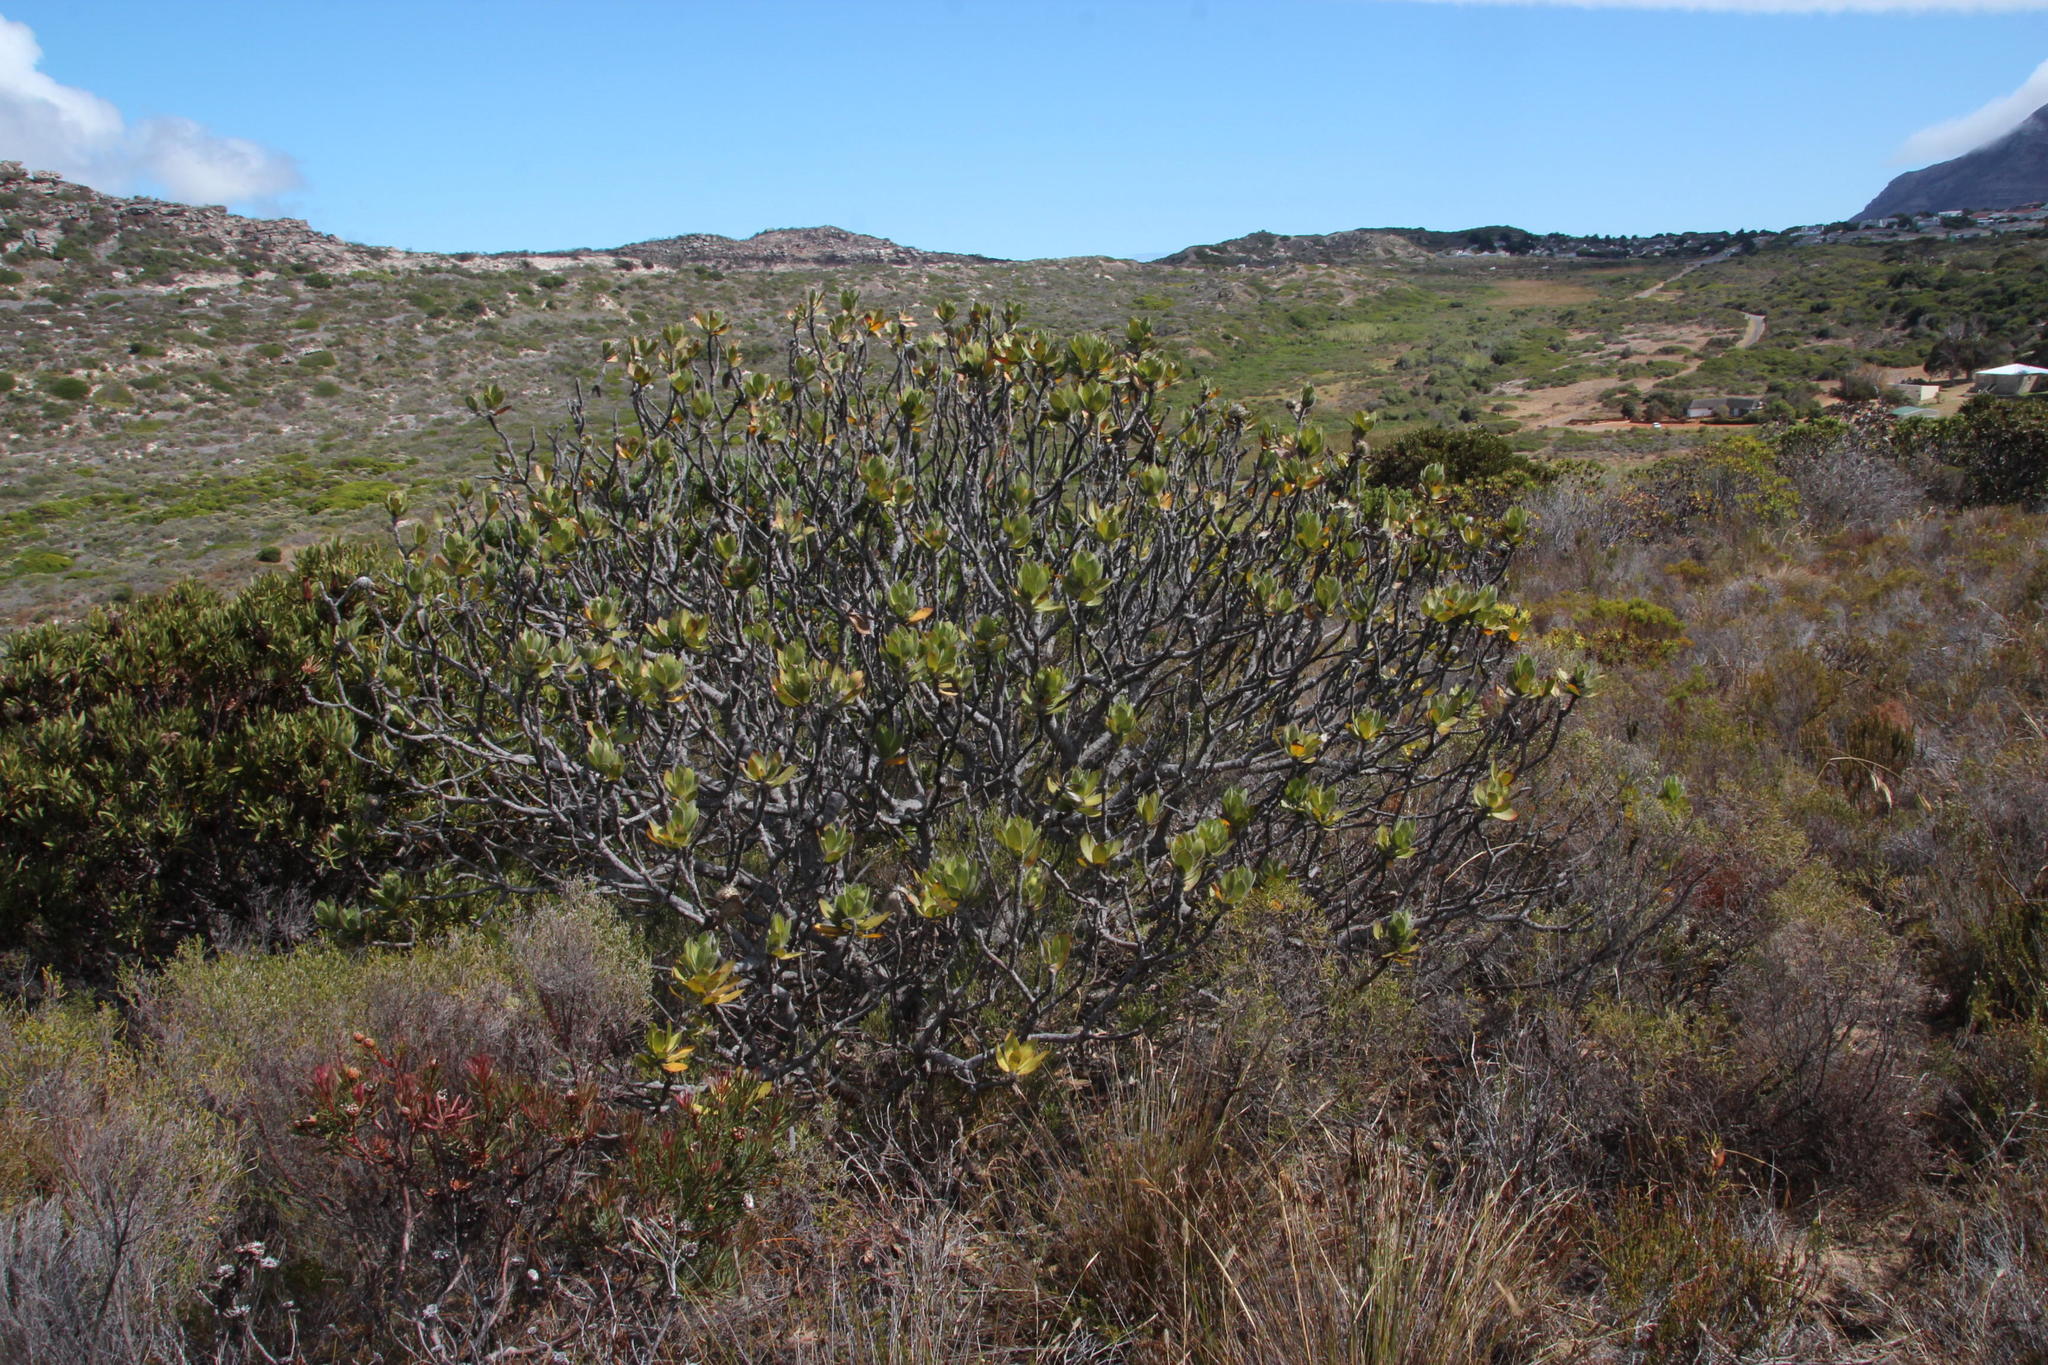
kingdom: Plantae
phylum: Tracheophyta
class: Magnoliopsida
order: Proteales
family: Proteaceae
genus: Leucospermum
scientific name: Leucospermum conocarpodendron
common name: Tree pincushion
